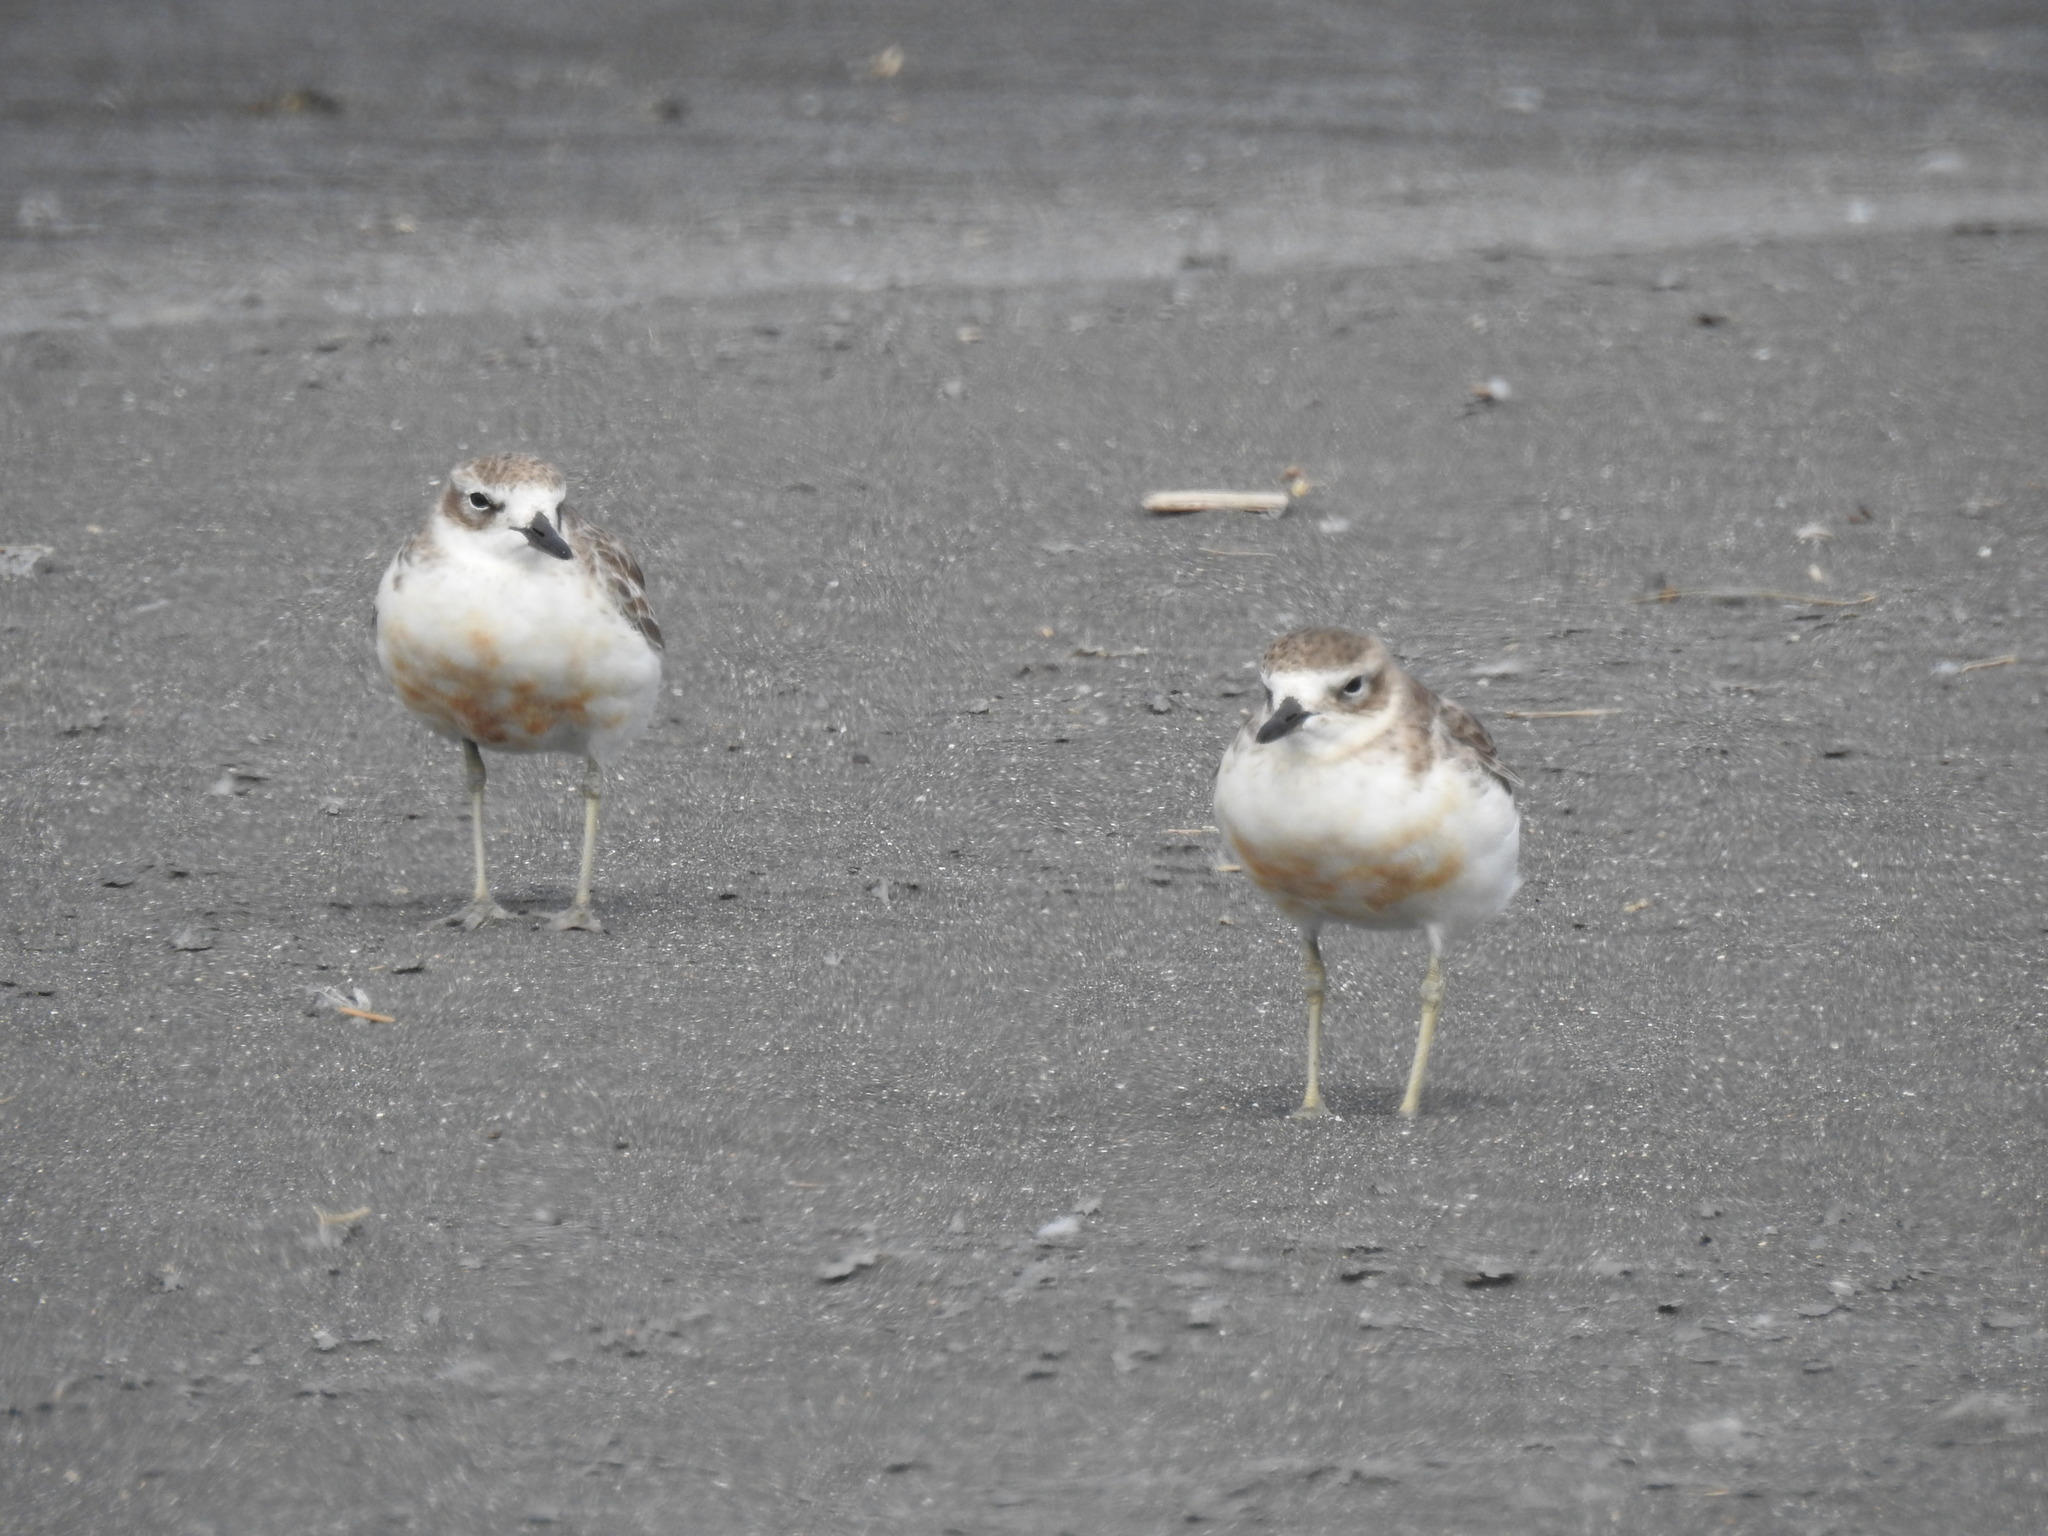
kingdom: Animalia
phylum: Chordata
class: Aves
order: Charadriiformes
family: Charadriidae
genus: Anarhynchus
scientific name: Anarhynchus
